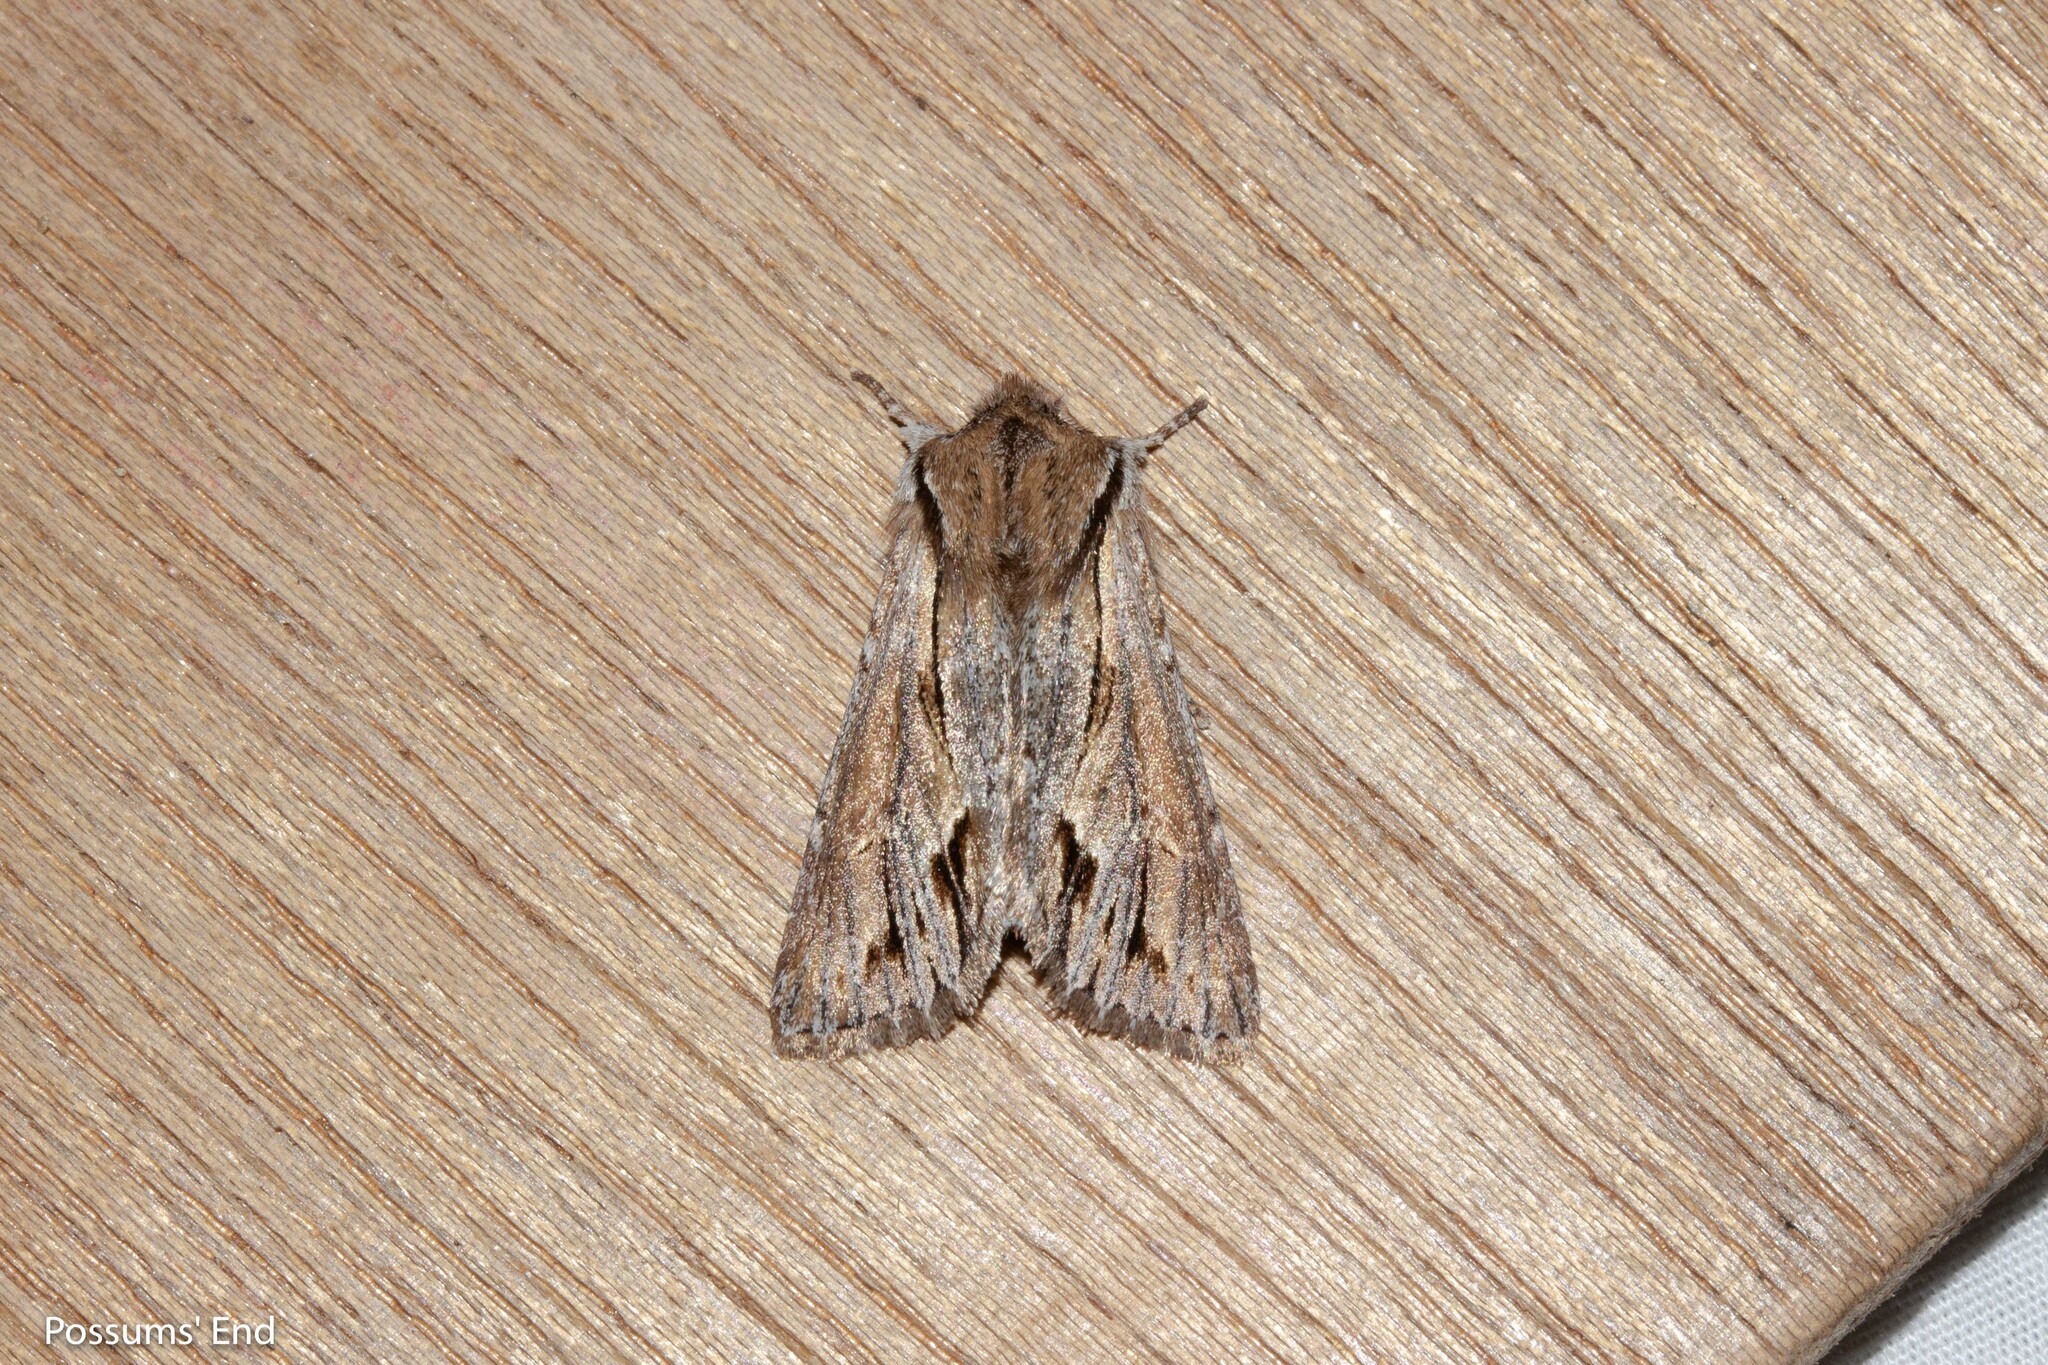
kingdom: Animalia
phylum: Arthropoda
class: Insecta
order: Lepidoptera
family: Noctuidae
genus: Ichneutica
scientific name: Ichneutica
